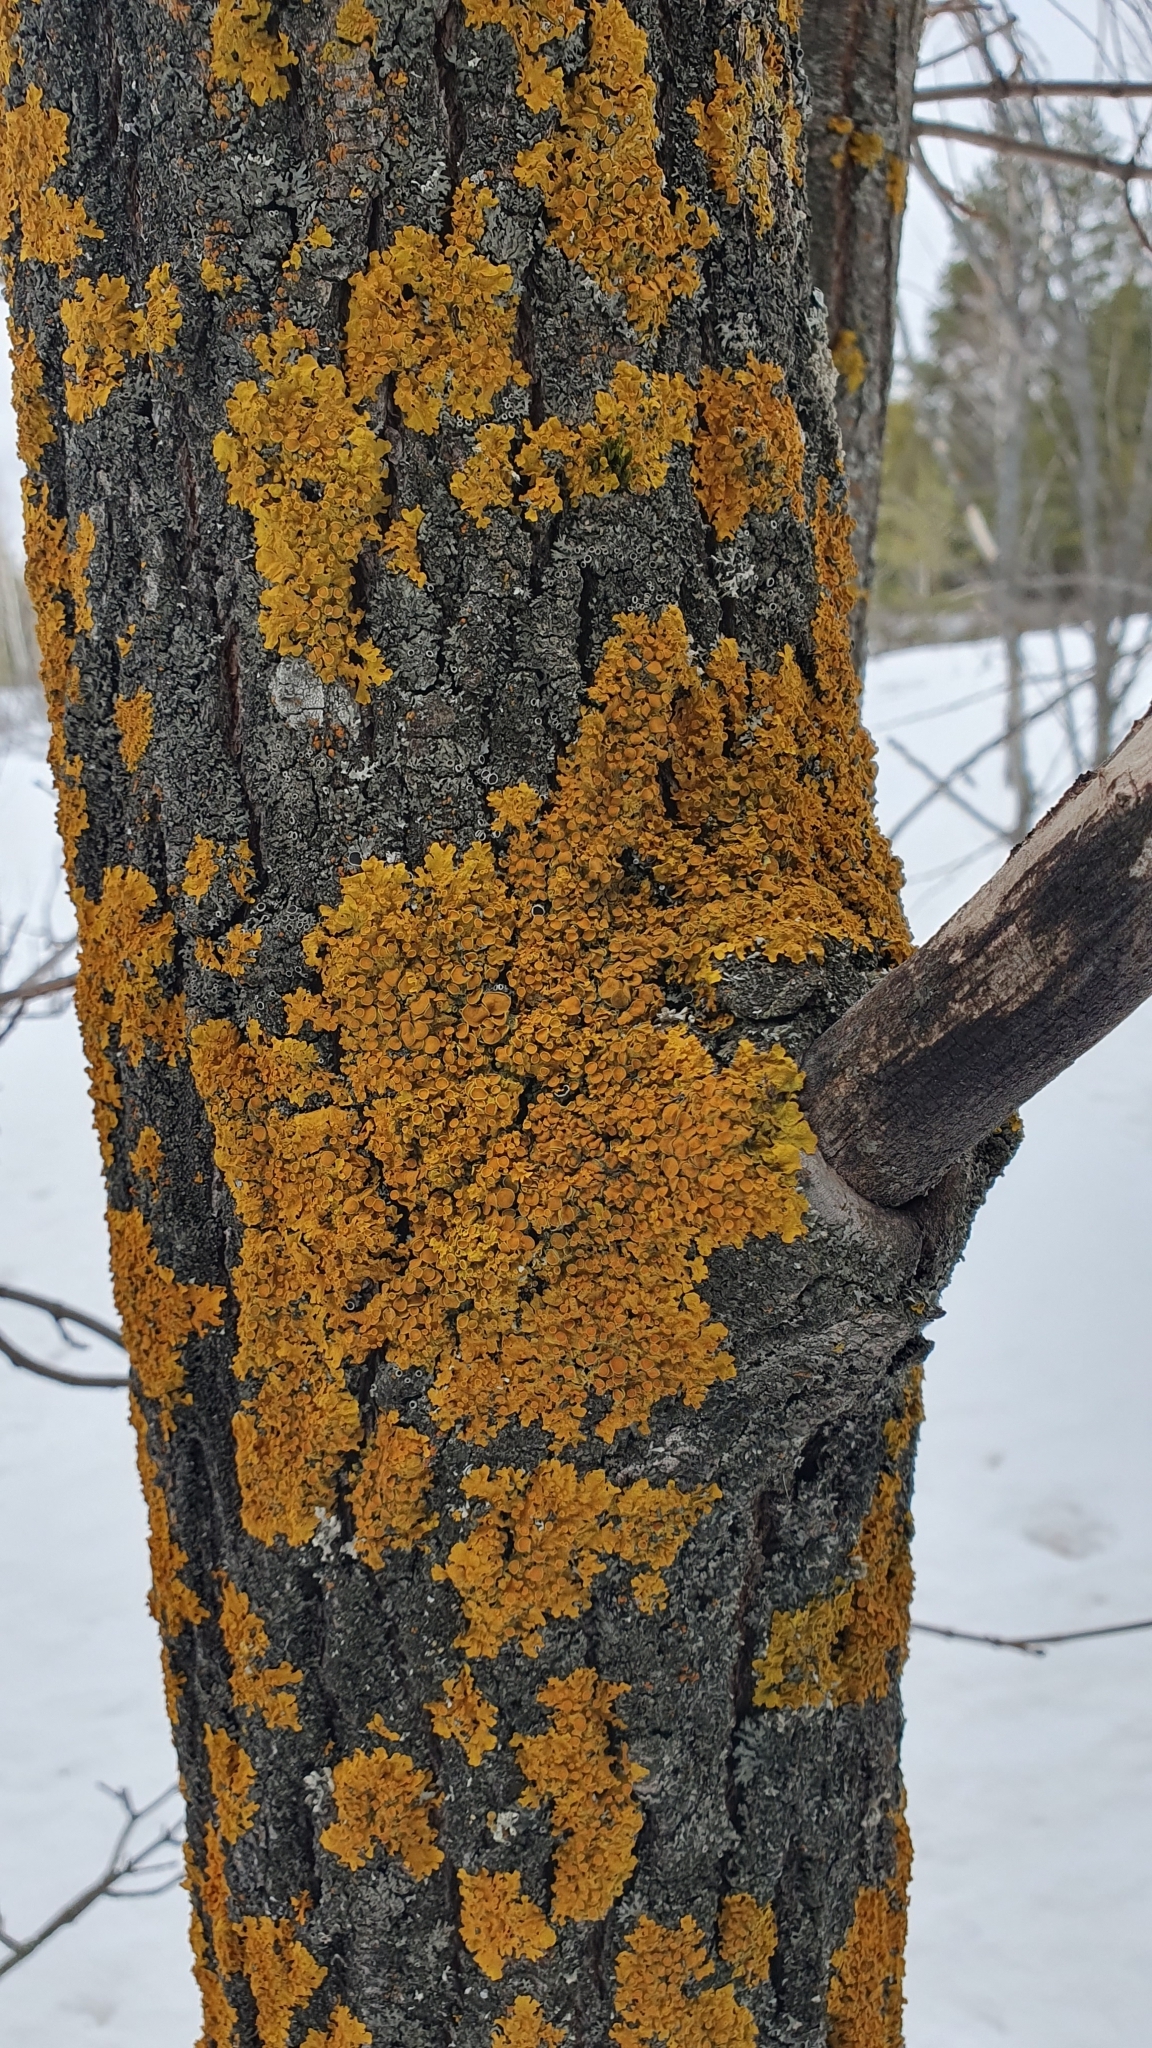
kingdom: Fungi
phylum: Ascomycota
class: Lecanoromycetes
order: Teloschistales
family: Teloschistaceae
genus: Xanthoria
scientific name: Xanthoria parietina
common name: Common orange lichen
